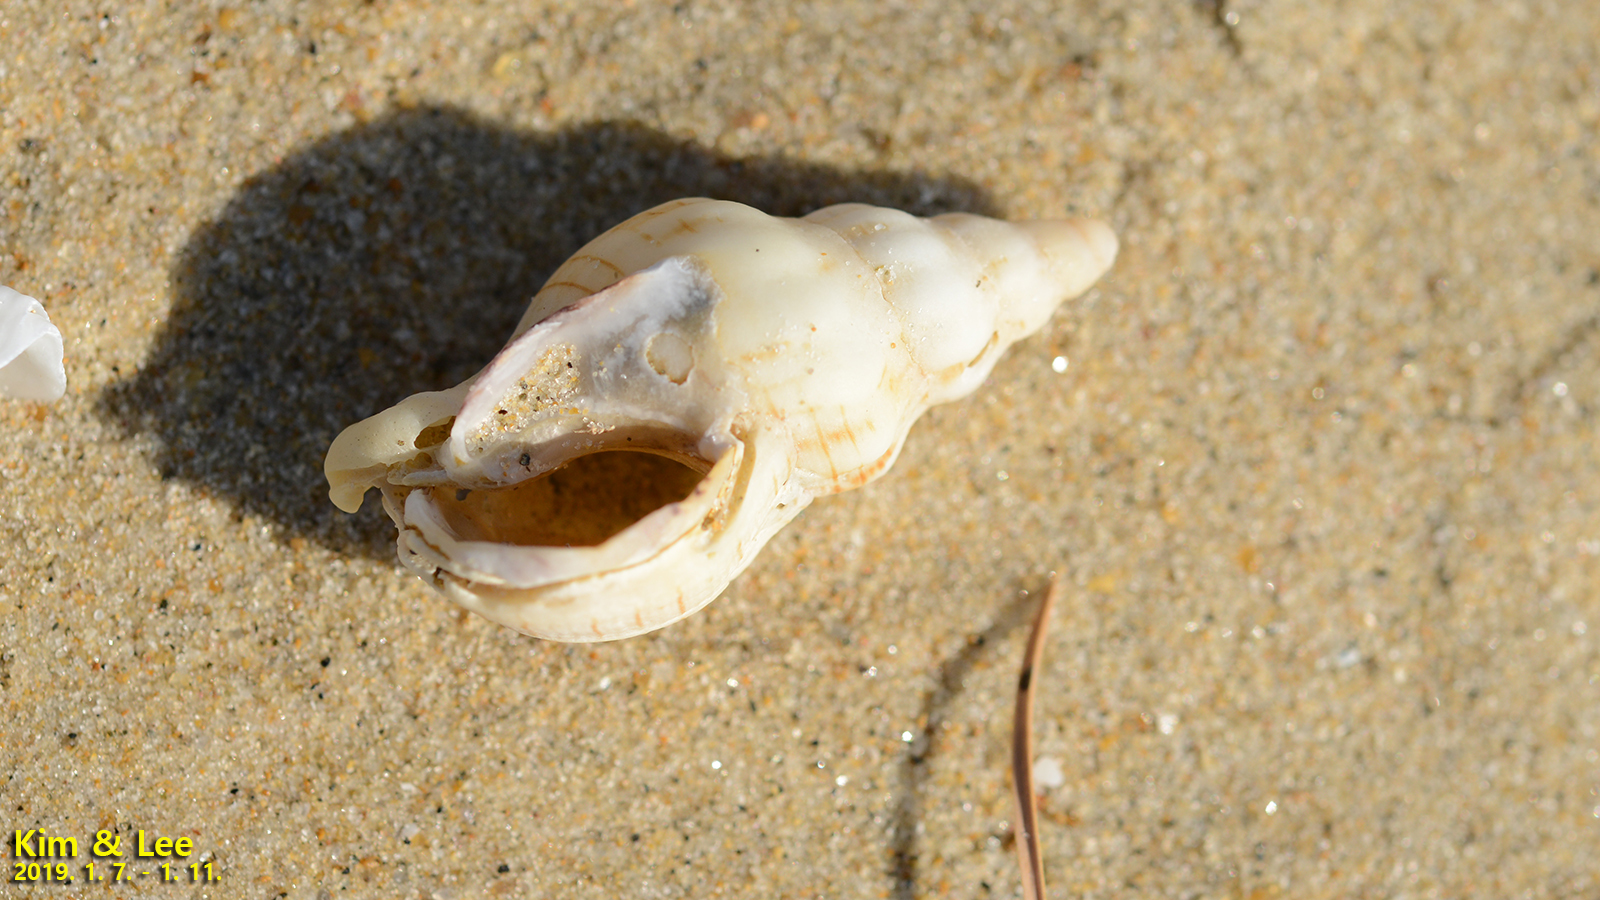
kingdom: Animalia
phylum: Mollusca
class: Gastropoda
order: Neogastropoda
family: Buccinidae
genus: Siphonalia
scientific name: Siphonalia spadicea
